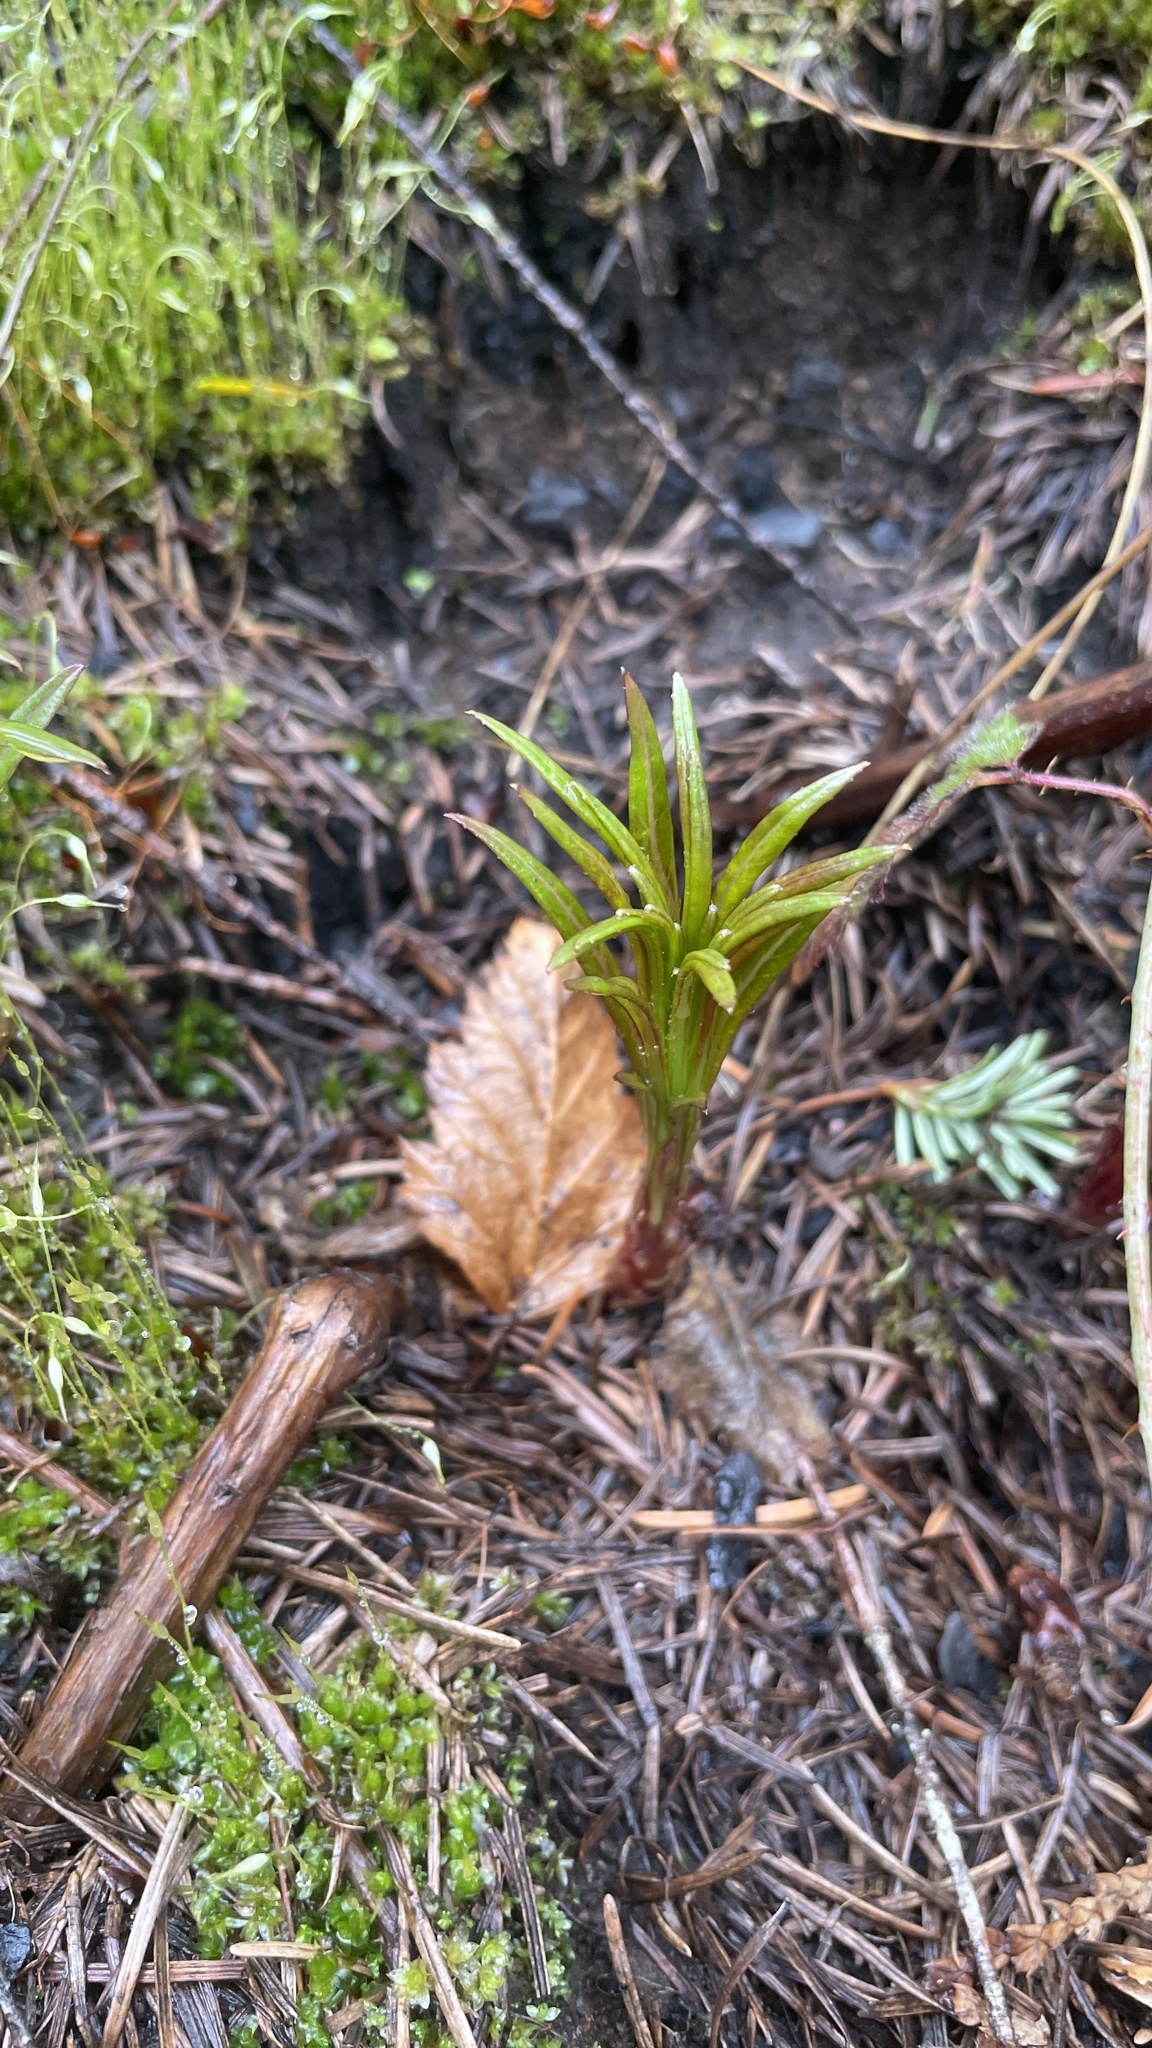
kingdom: Plantae
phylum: Tracheophyta
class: Magnoliopsida
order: Myrtales
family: Onagraceae
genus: Chamaenerion
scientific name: Chamaenerion angustifolium
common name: Fireweed
